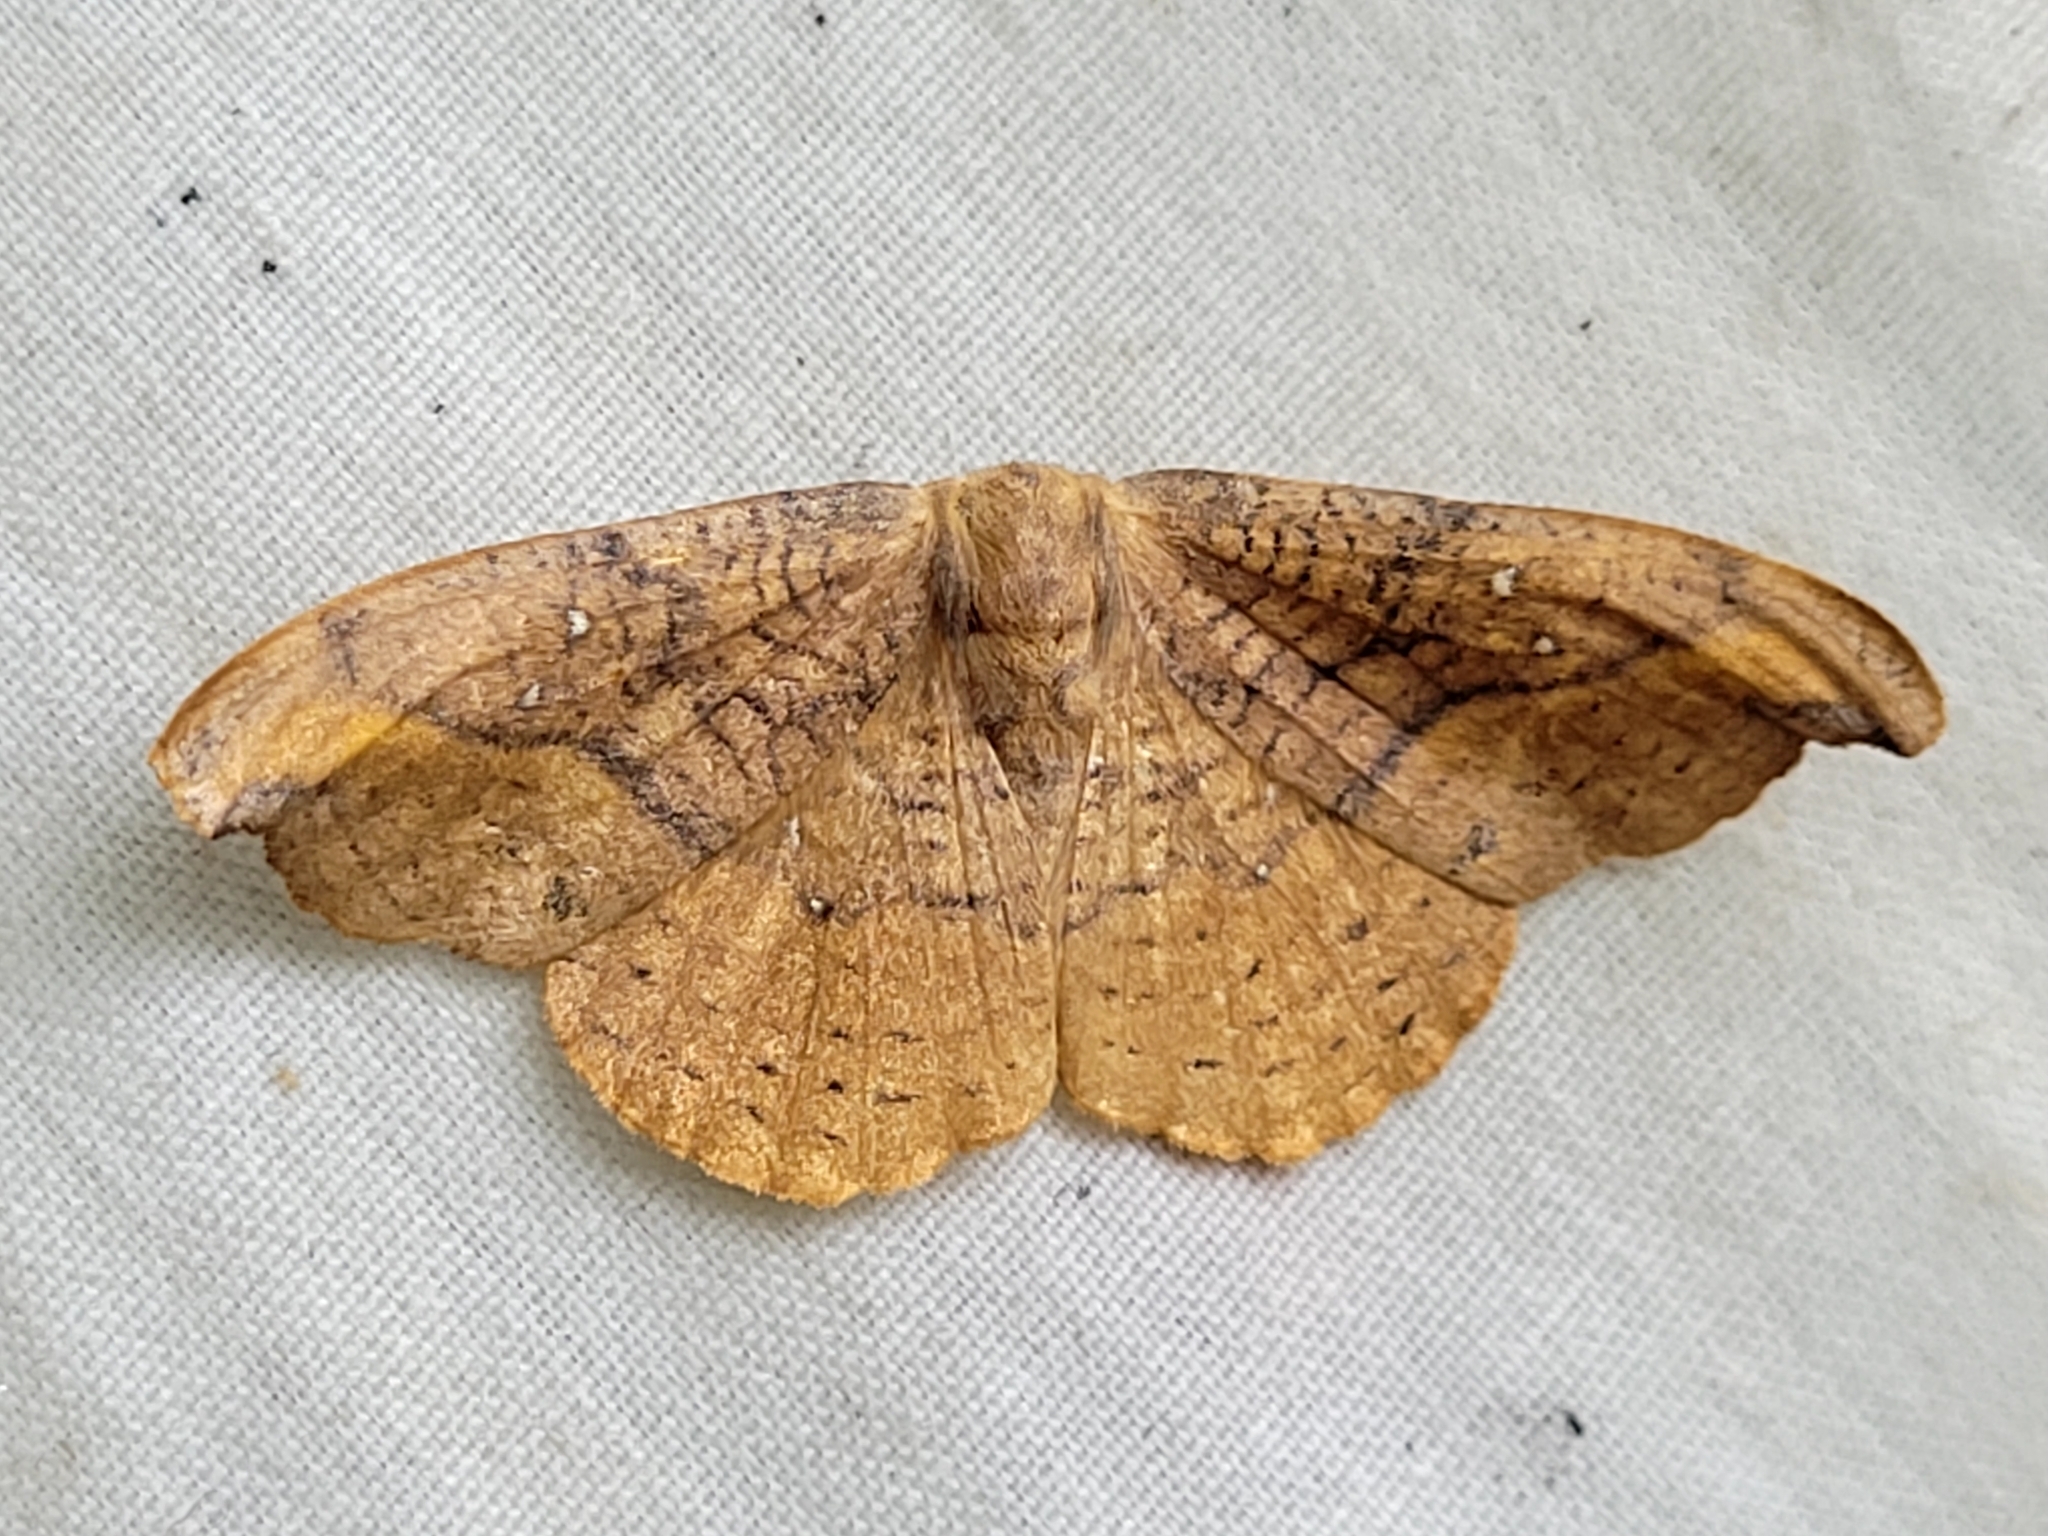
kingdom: Animalia
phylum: Arthropoda
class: Insecta
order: Lepidoptera
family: Drepanidae
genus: Oreta
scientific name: Oreta rosea
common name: Rose hooktip
